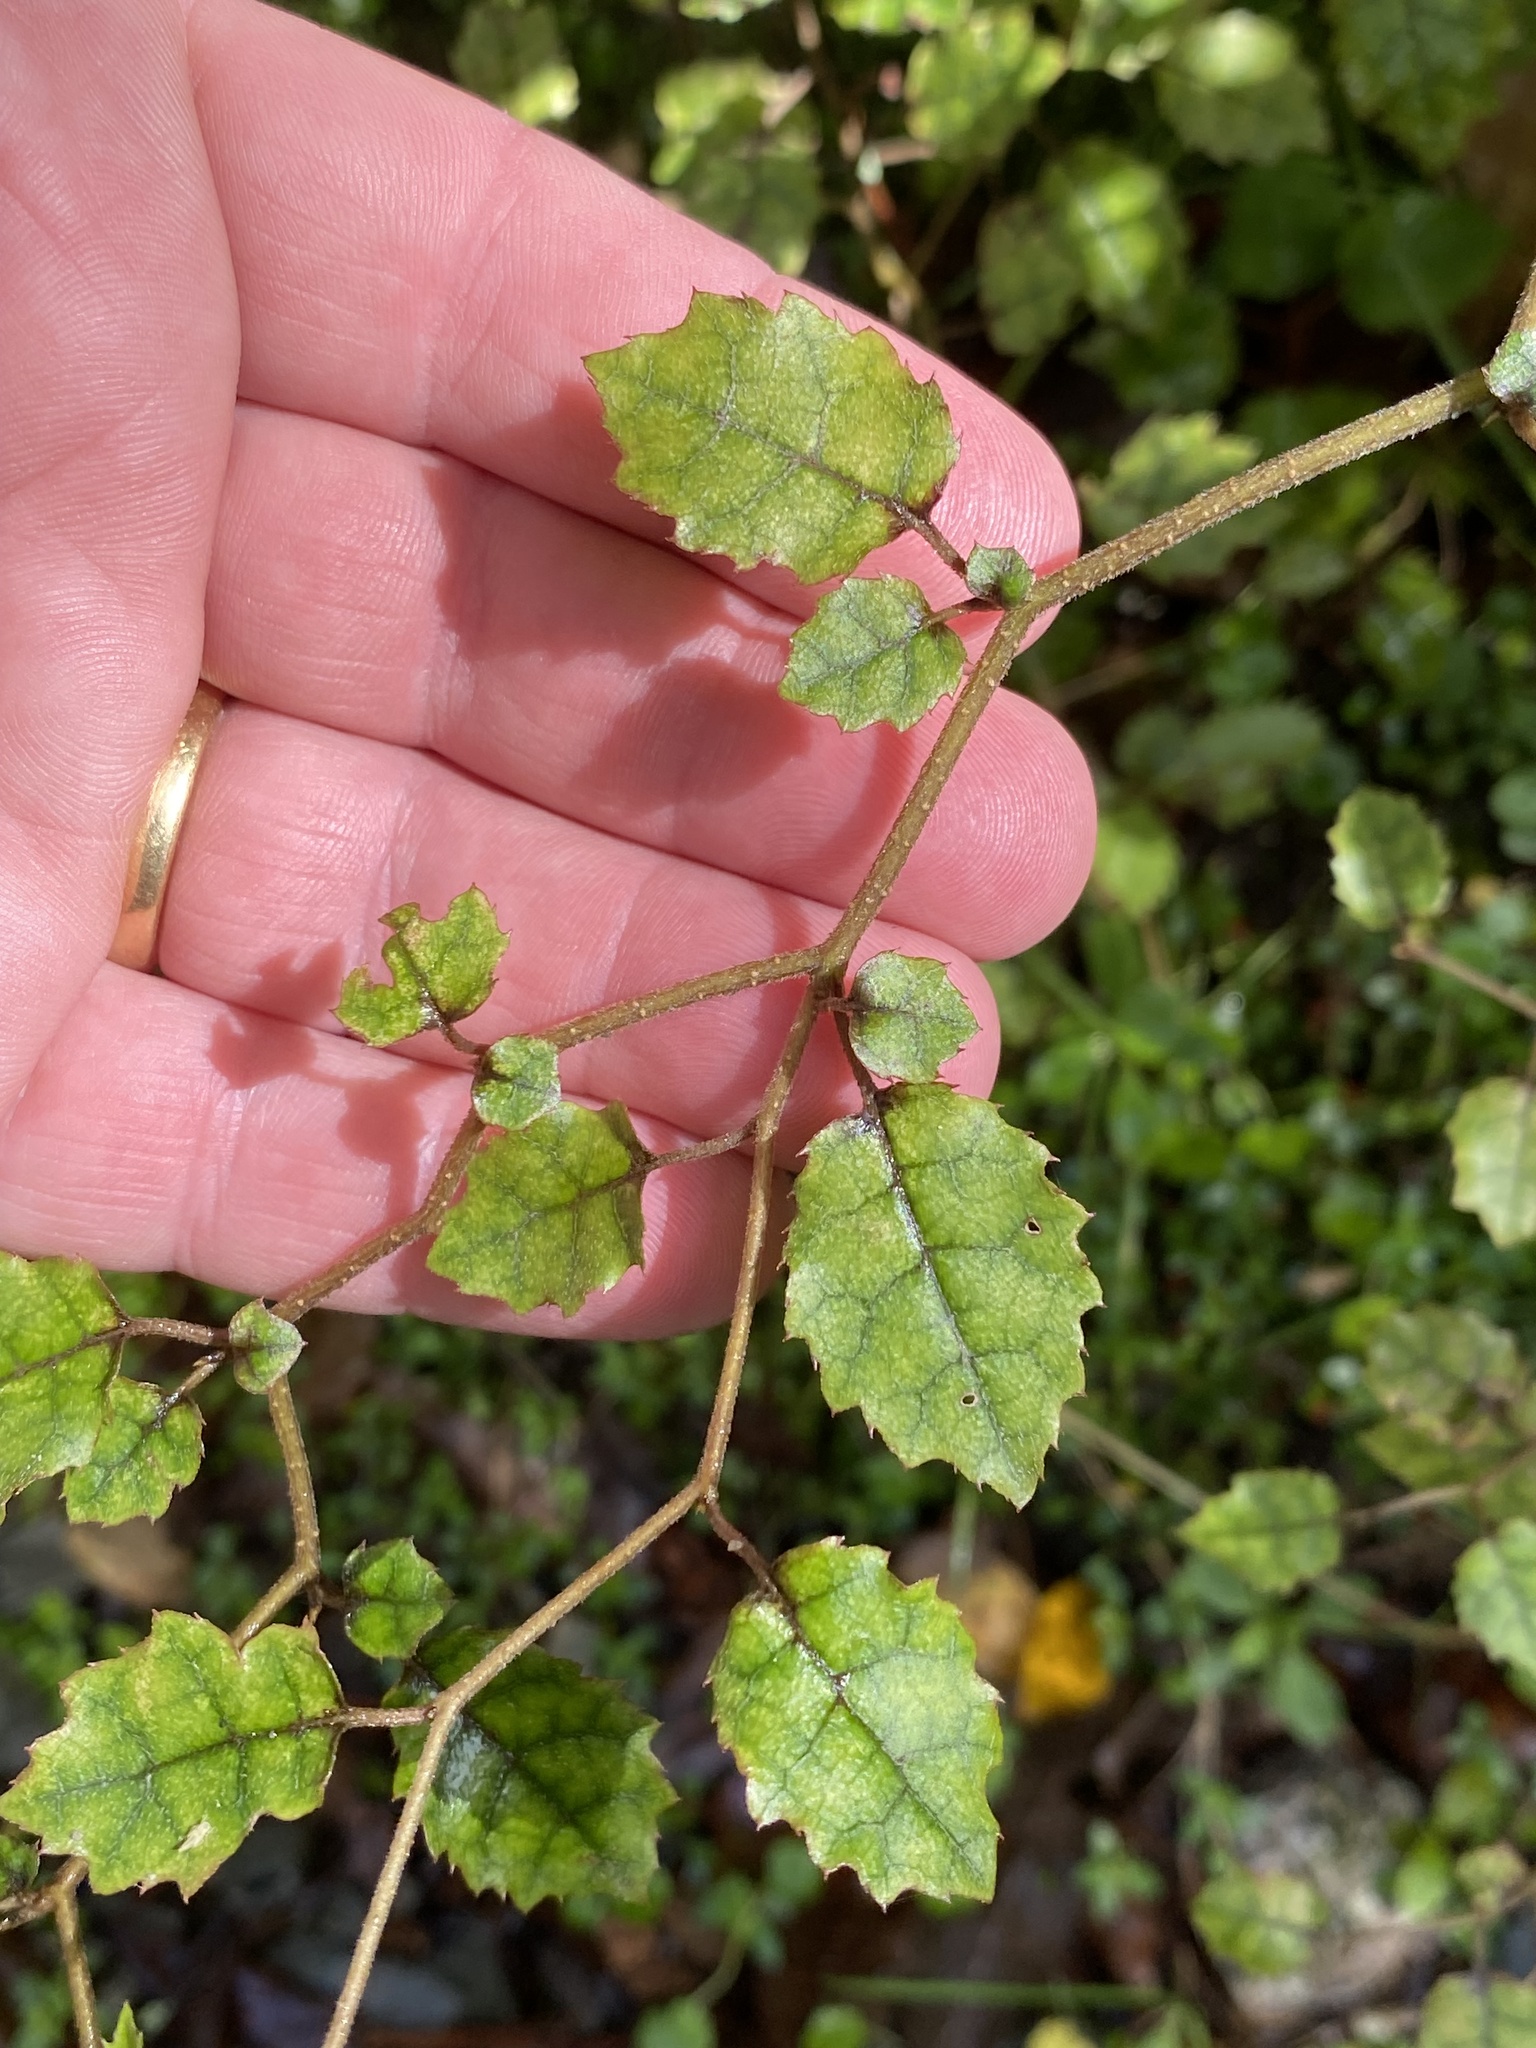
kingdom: Plantae
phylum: Tracheophyta
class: Magnoliopsida
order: Asterales
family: Rousseaceae
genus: Carpodetus
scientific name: Carpodetus serratus
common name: White mapau
